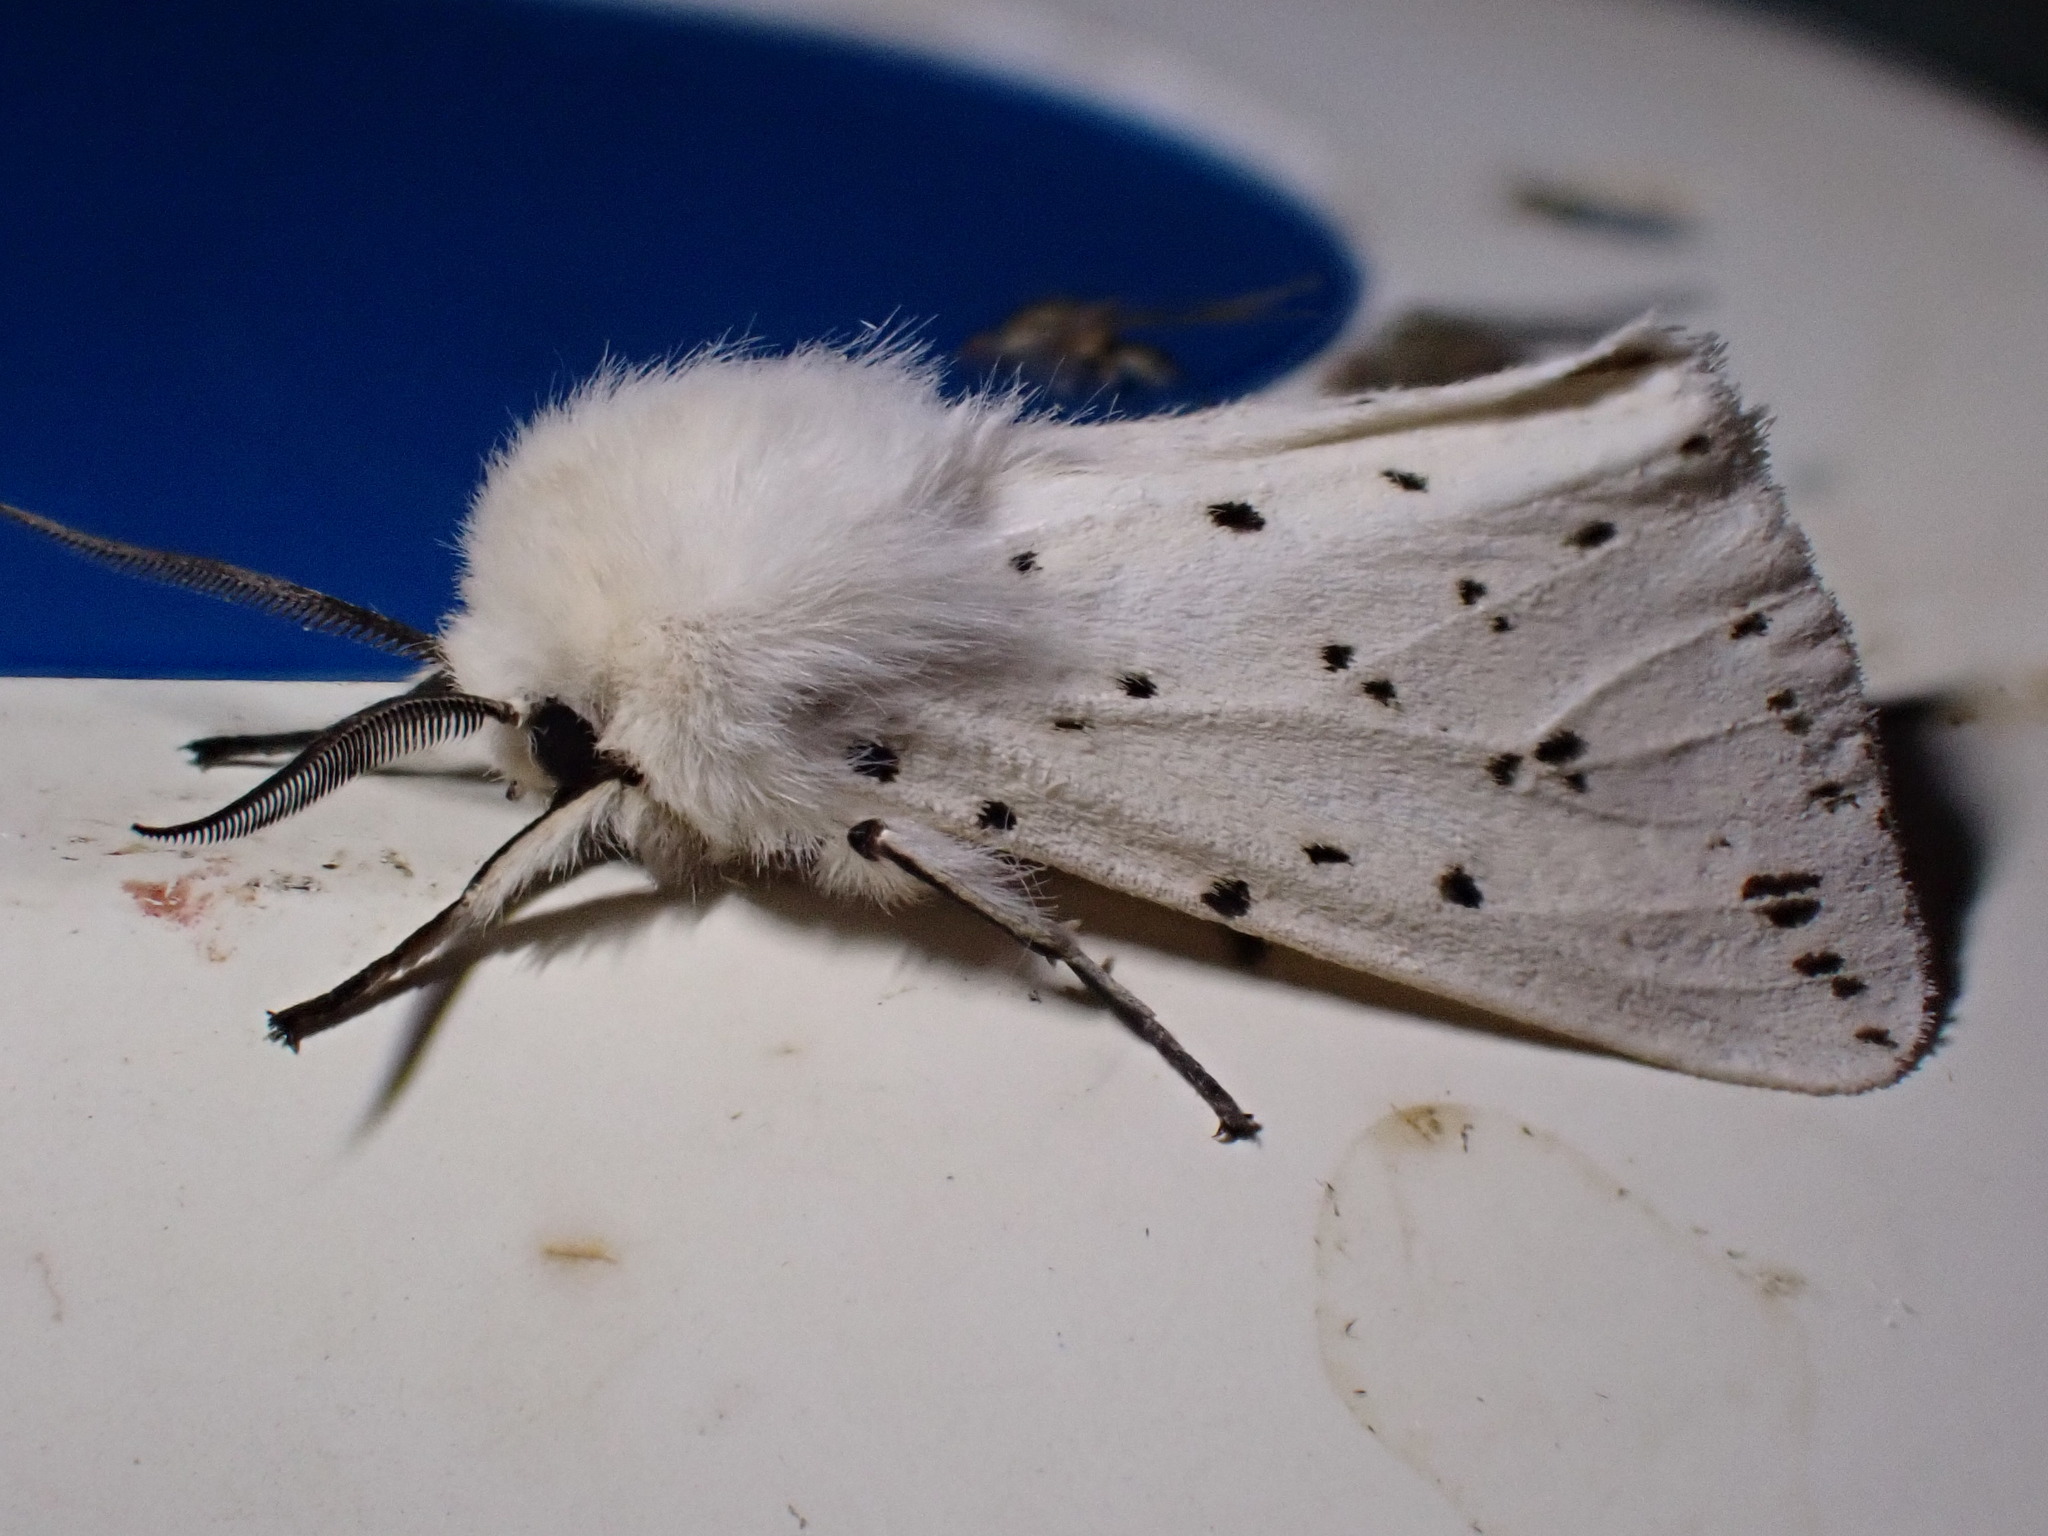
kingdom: Animalia
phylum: Arthropoda
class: Insecta
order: Lepidoptera
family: Erebidae
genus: Spilosoma
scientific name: Spilosoma lubricipeda
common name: White ermine
